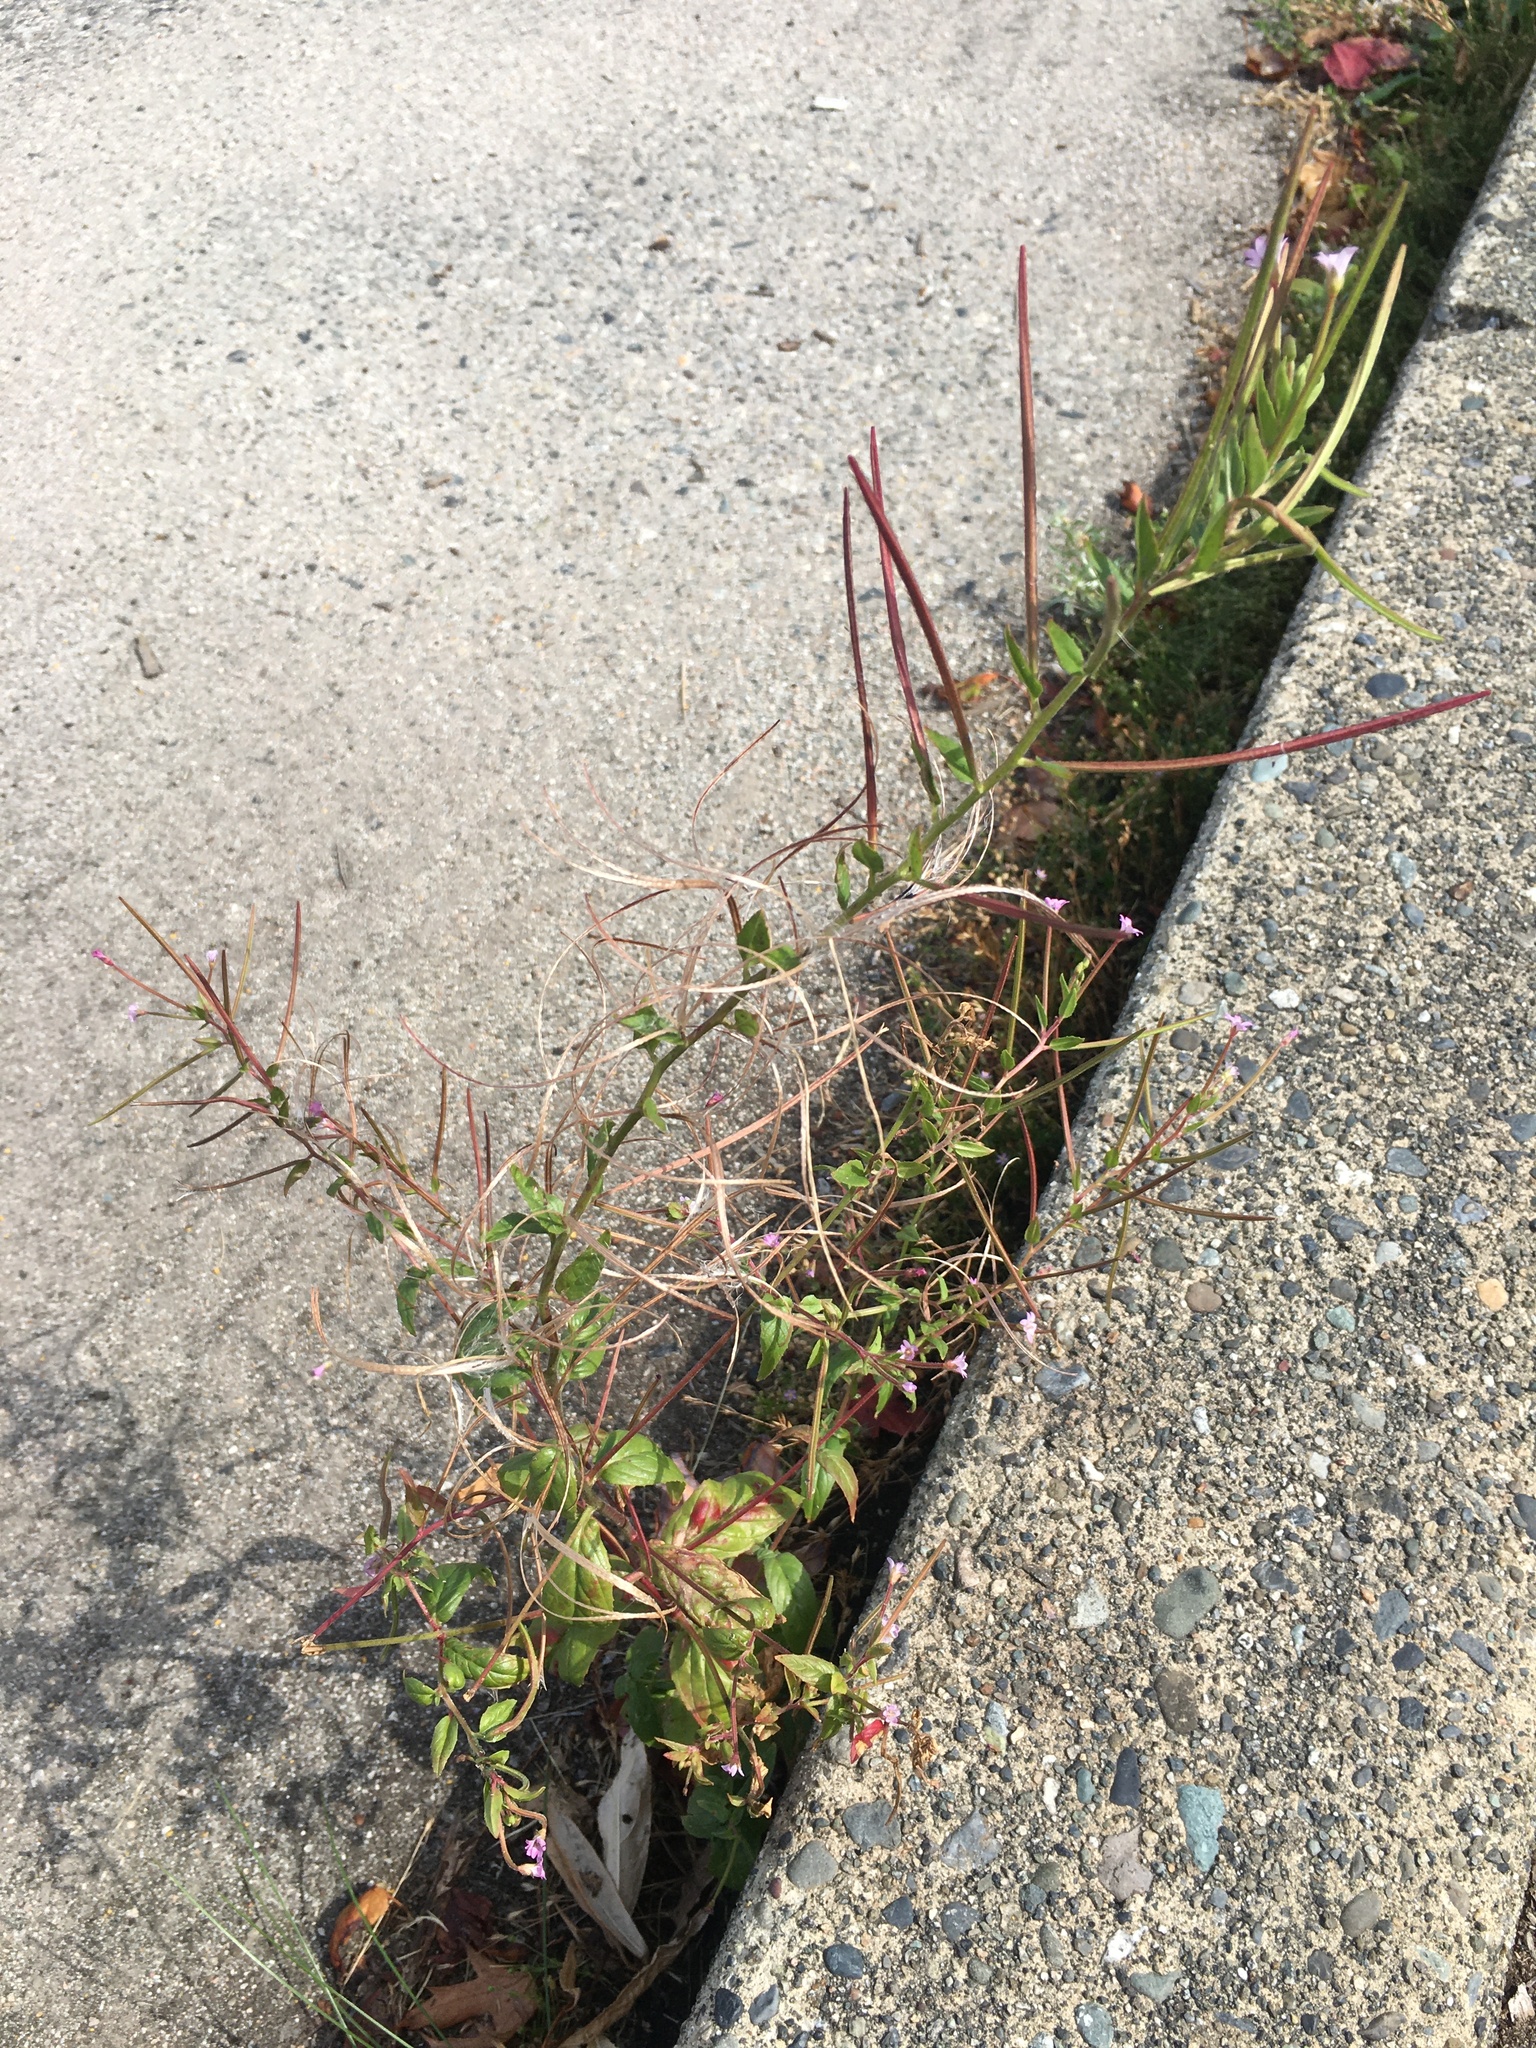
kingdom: Plantae
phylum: Tracheophyta
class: Magnoliopsida
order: Myrtales
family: Onagraceae
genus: Epilobium
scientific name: Epilobium ciliatum
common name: American willowherb
